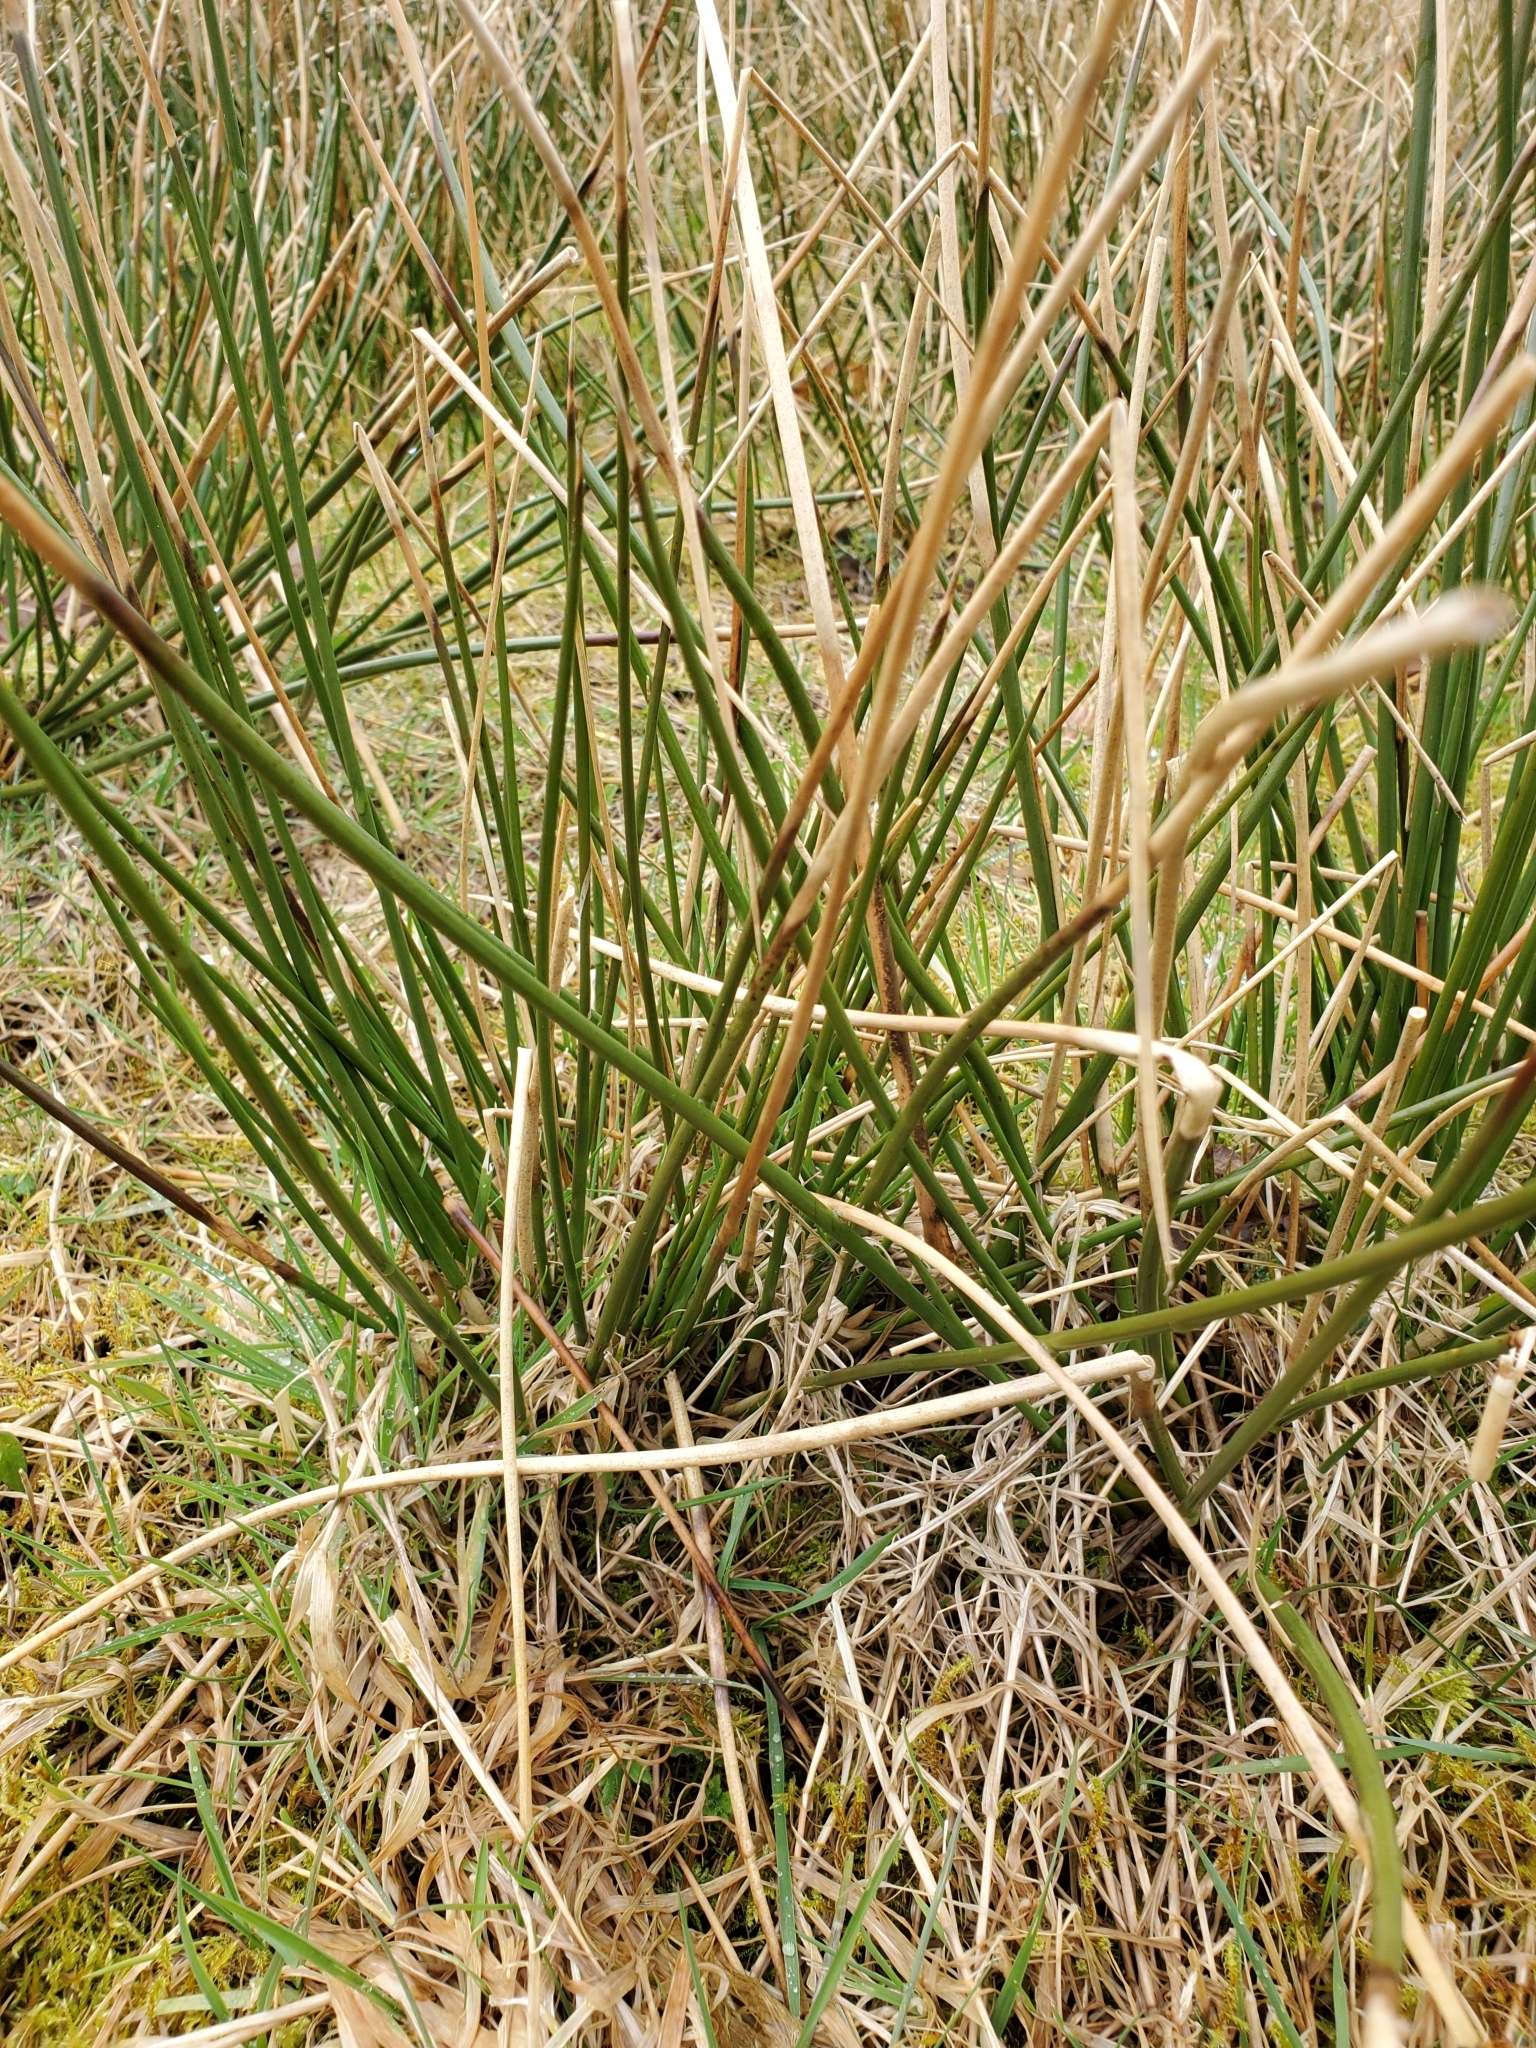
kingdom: Plantae
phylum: Tracheophyta
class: Liliopsida
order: Poales
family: Juncaceae
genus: Juncus
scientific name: Juncus effusus
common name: Soft rush
